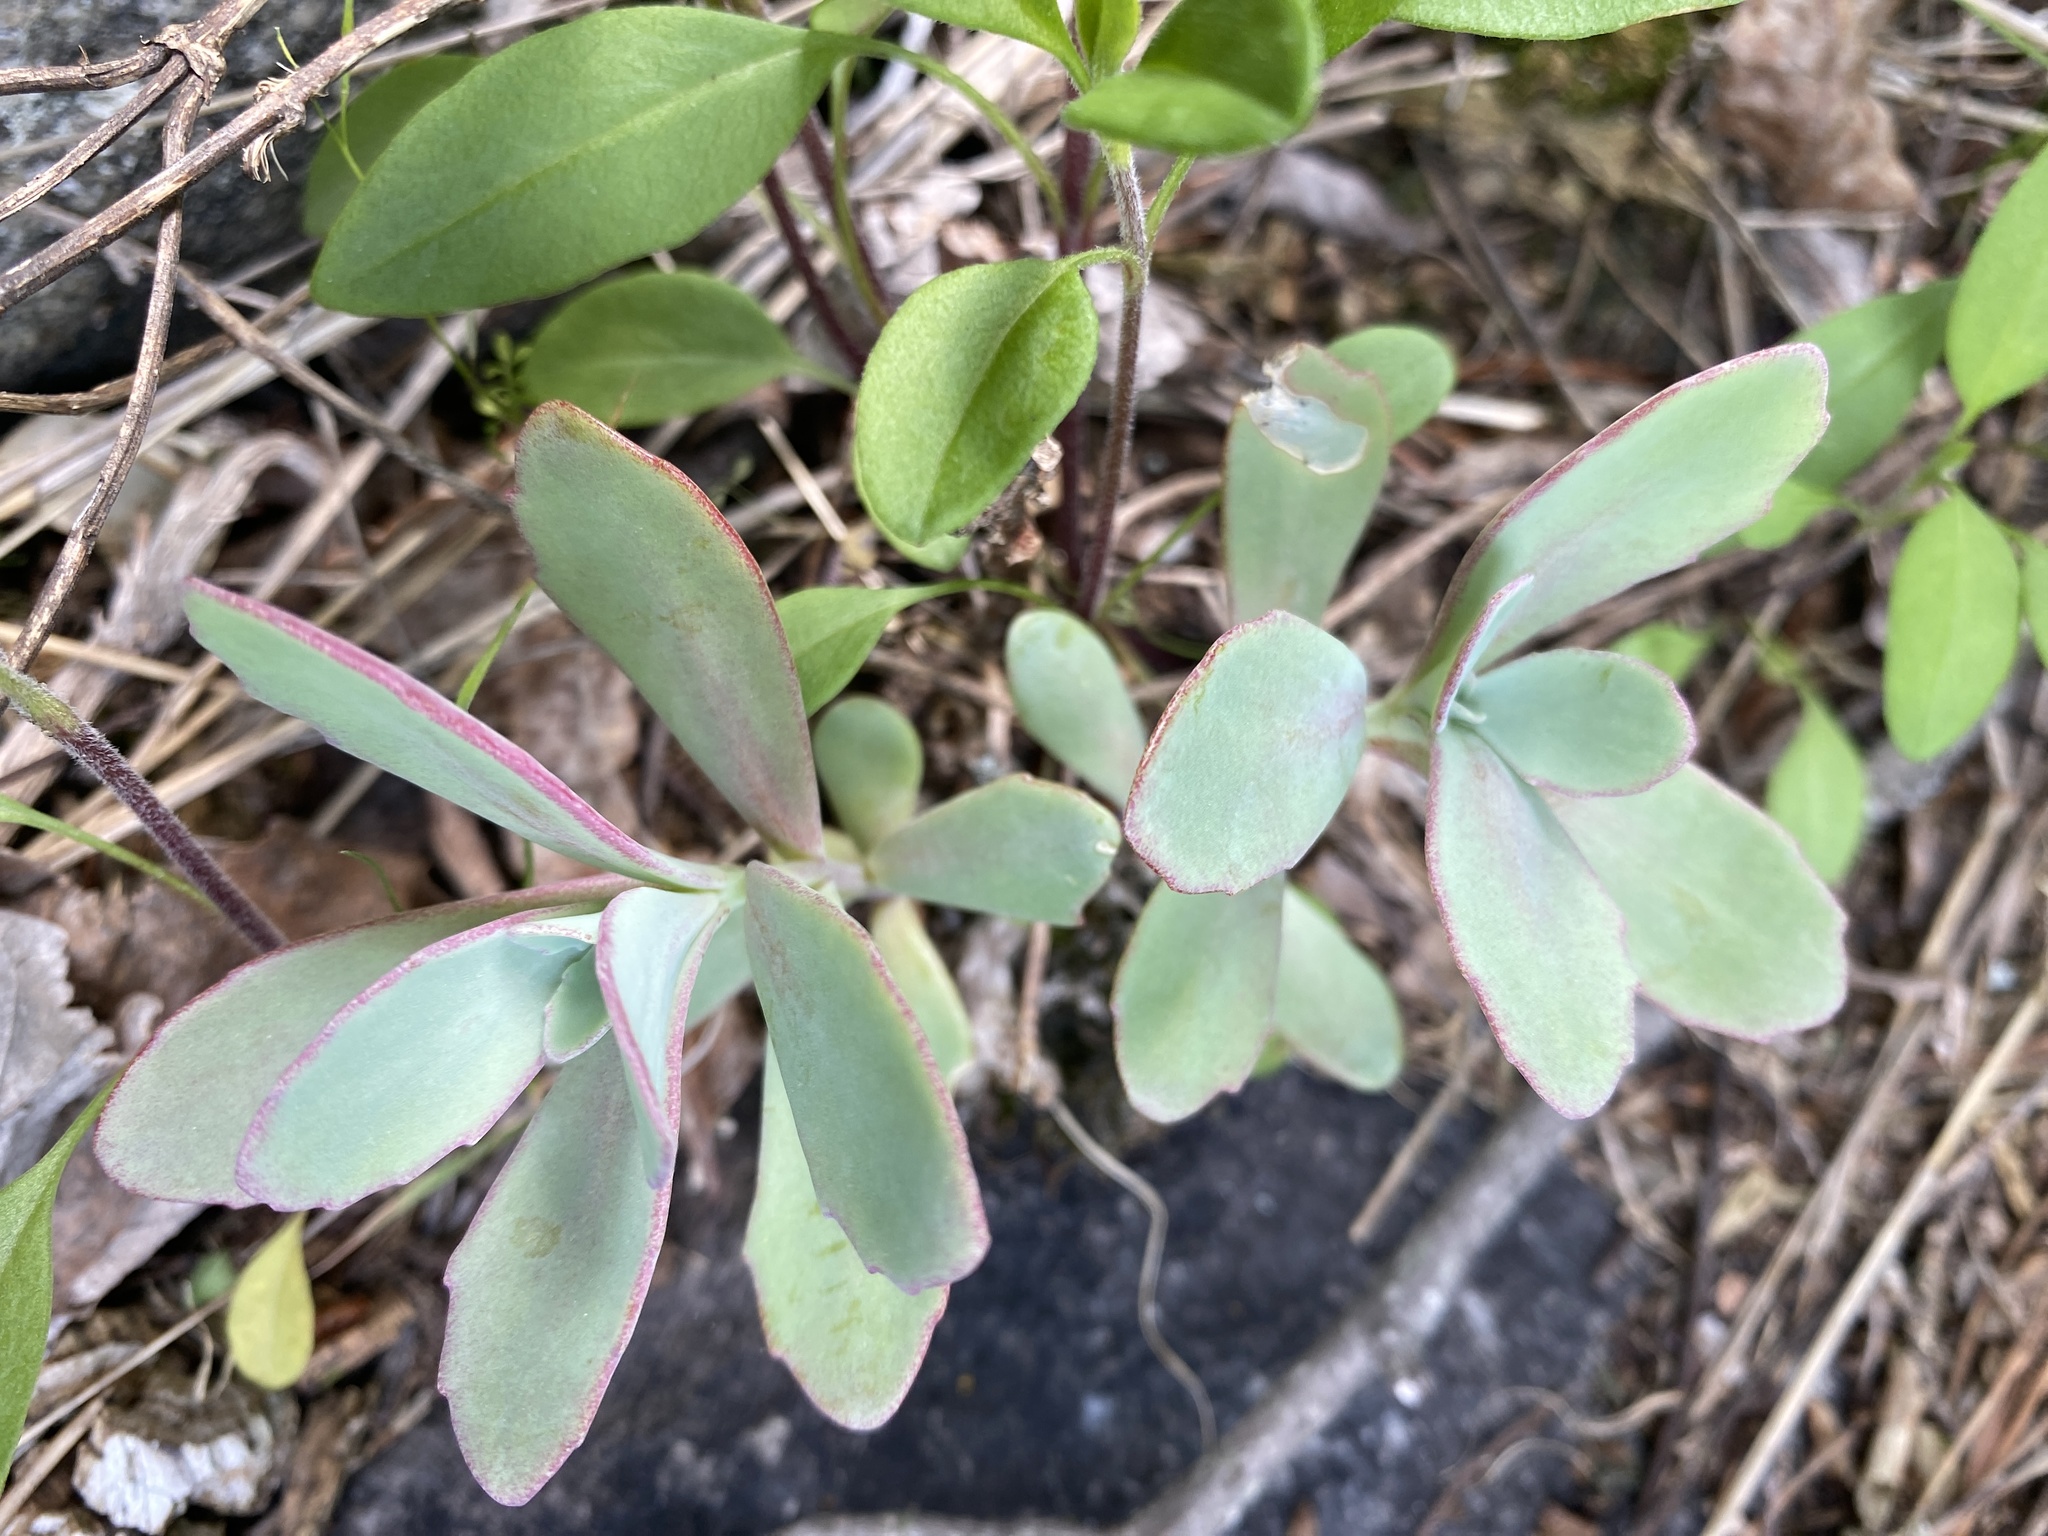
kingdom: Plantae
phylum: Tracheophyta
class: Magnoliopsida
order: Saxifragales
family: Crassulaceae
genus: Hylotelephium
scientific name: Hylotelephium telephioides
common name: Allegheny stonecrop
